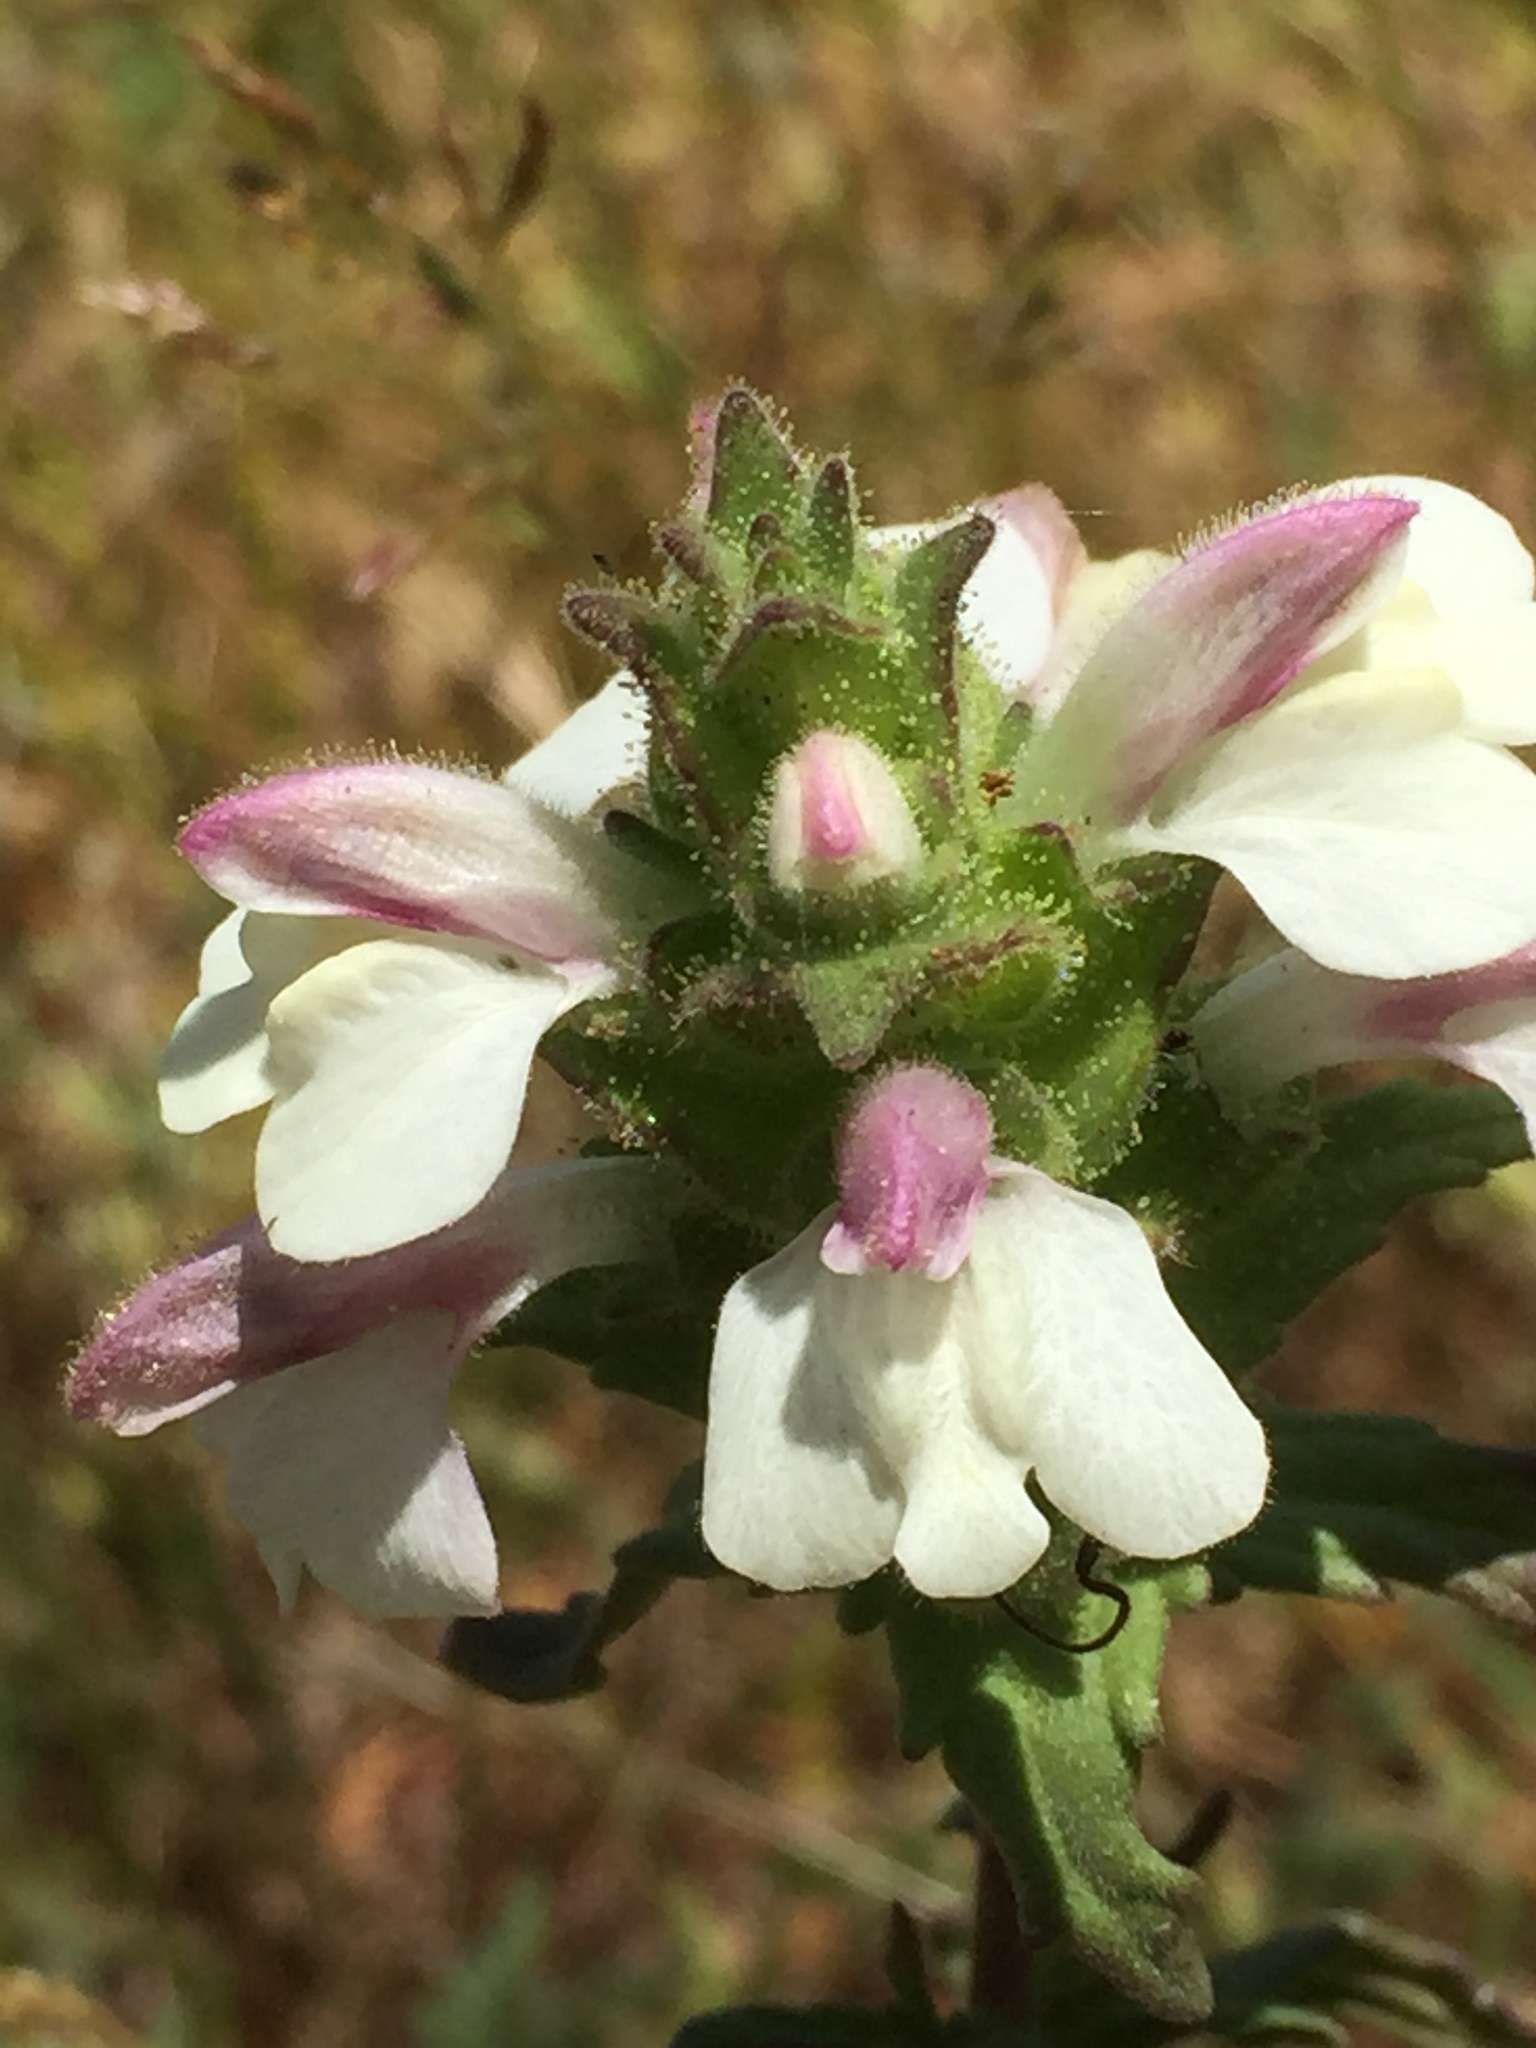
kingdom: Plantae
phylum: Tracheophyta
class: Magnoliopsida
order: Lamiales
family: Orobanchaceae
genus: Bellardia
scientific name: Bellardia trixago
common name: Mediterranean lineseed
